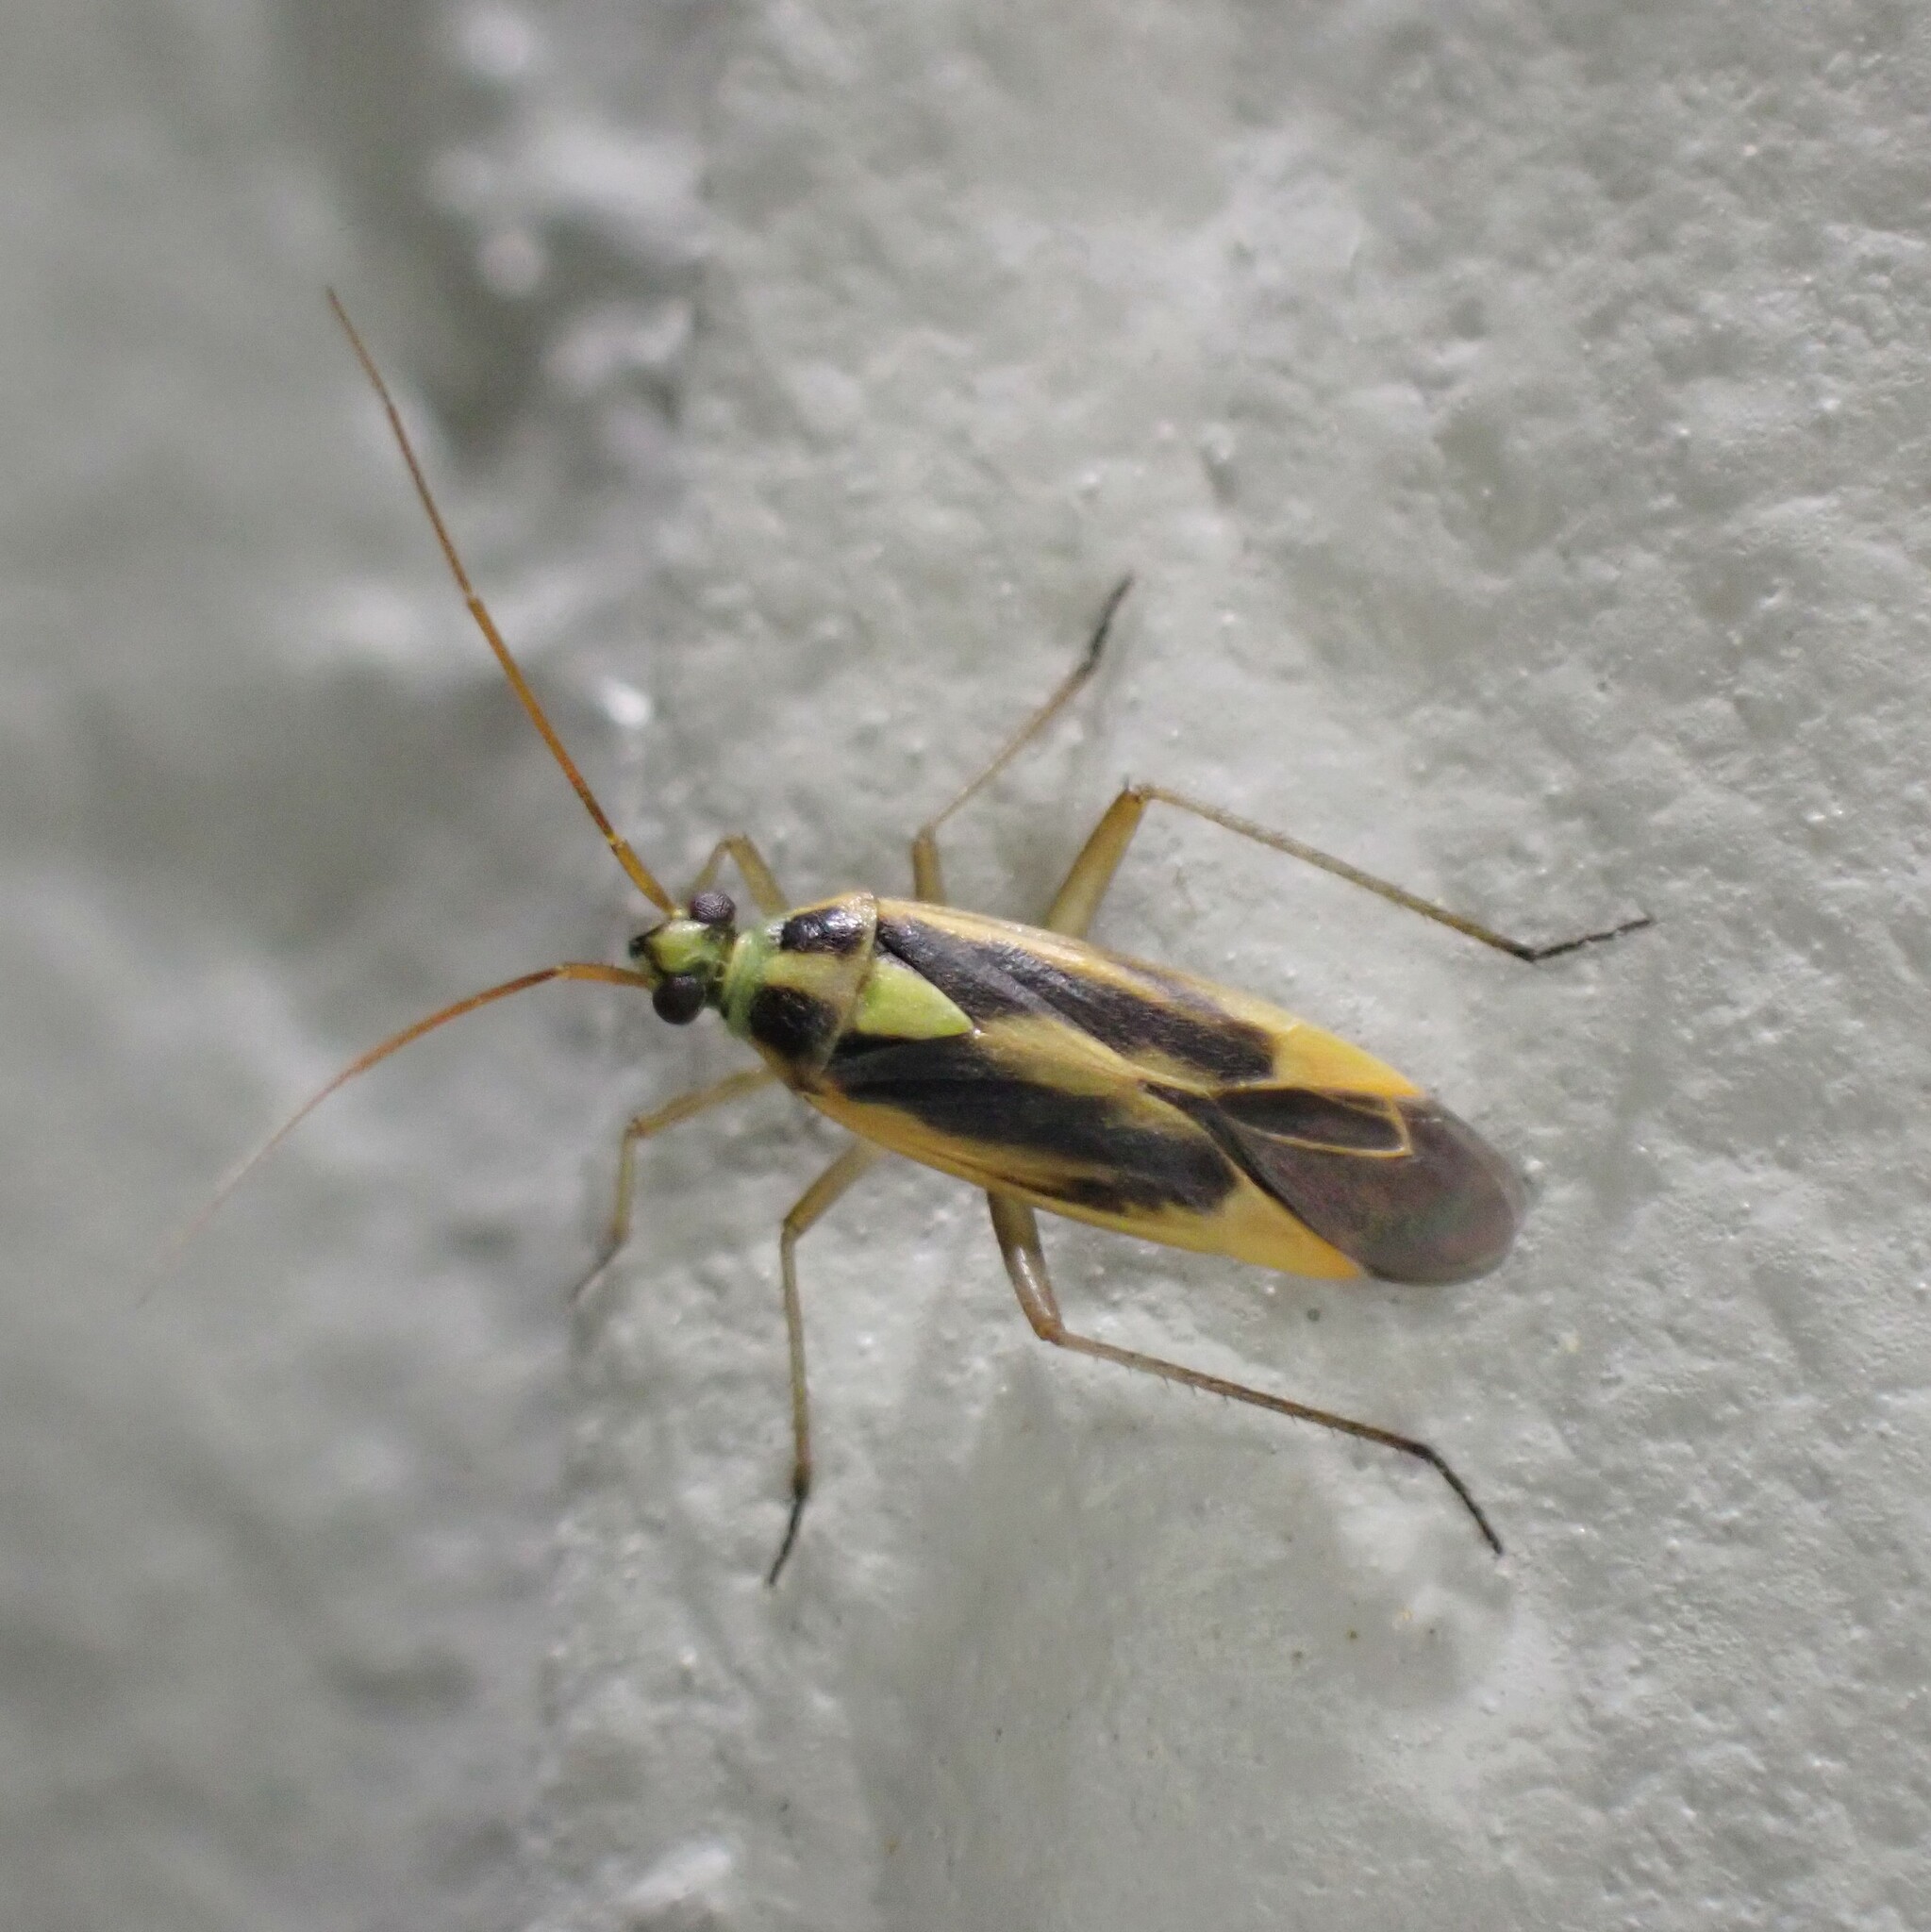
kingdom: Animalia
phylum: Arthropoda
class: Insecta
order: Hemiptera
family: Miridae
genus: Stenotus
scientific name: Stenotus binotatus
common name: Plant bug
